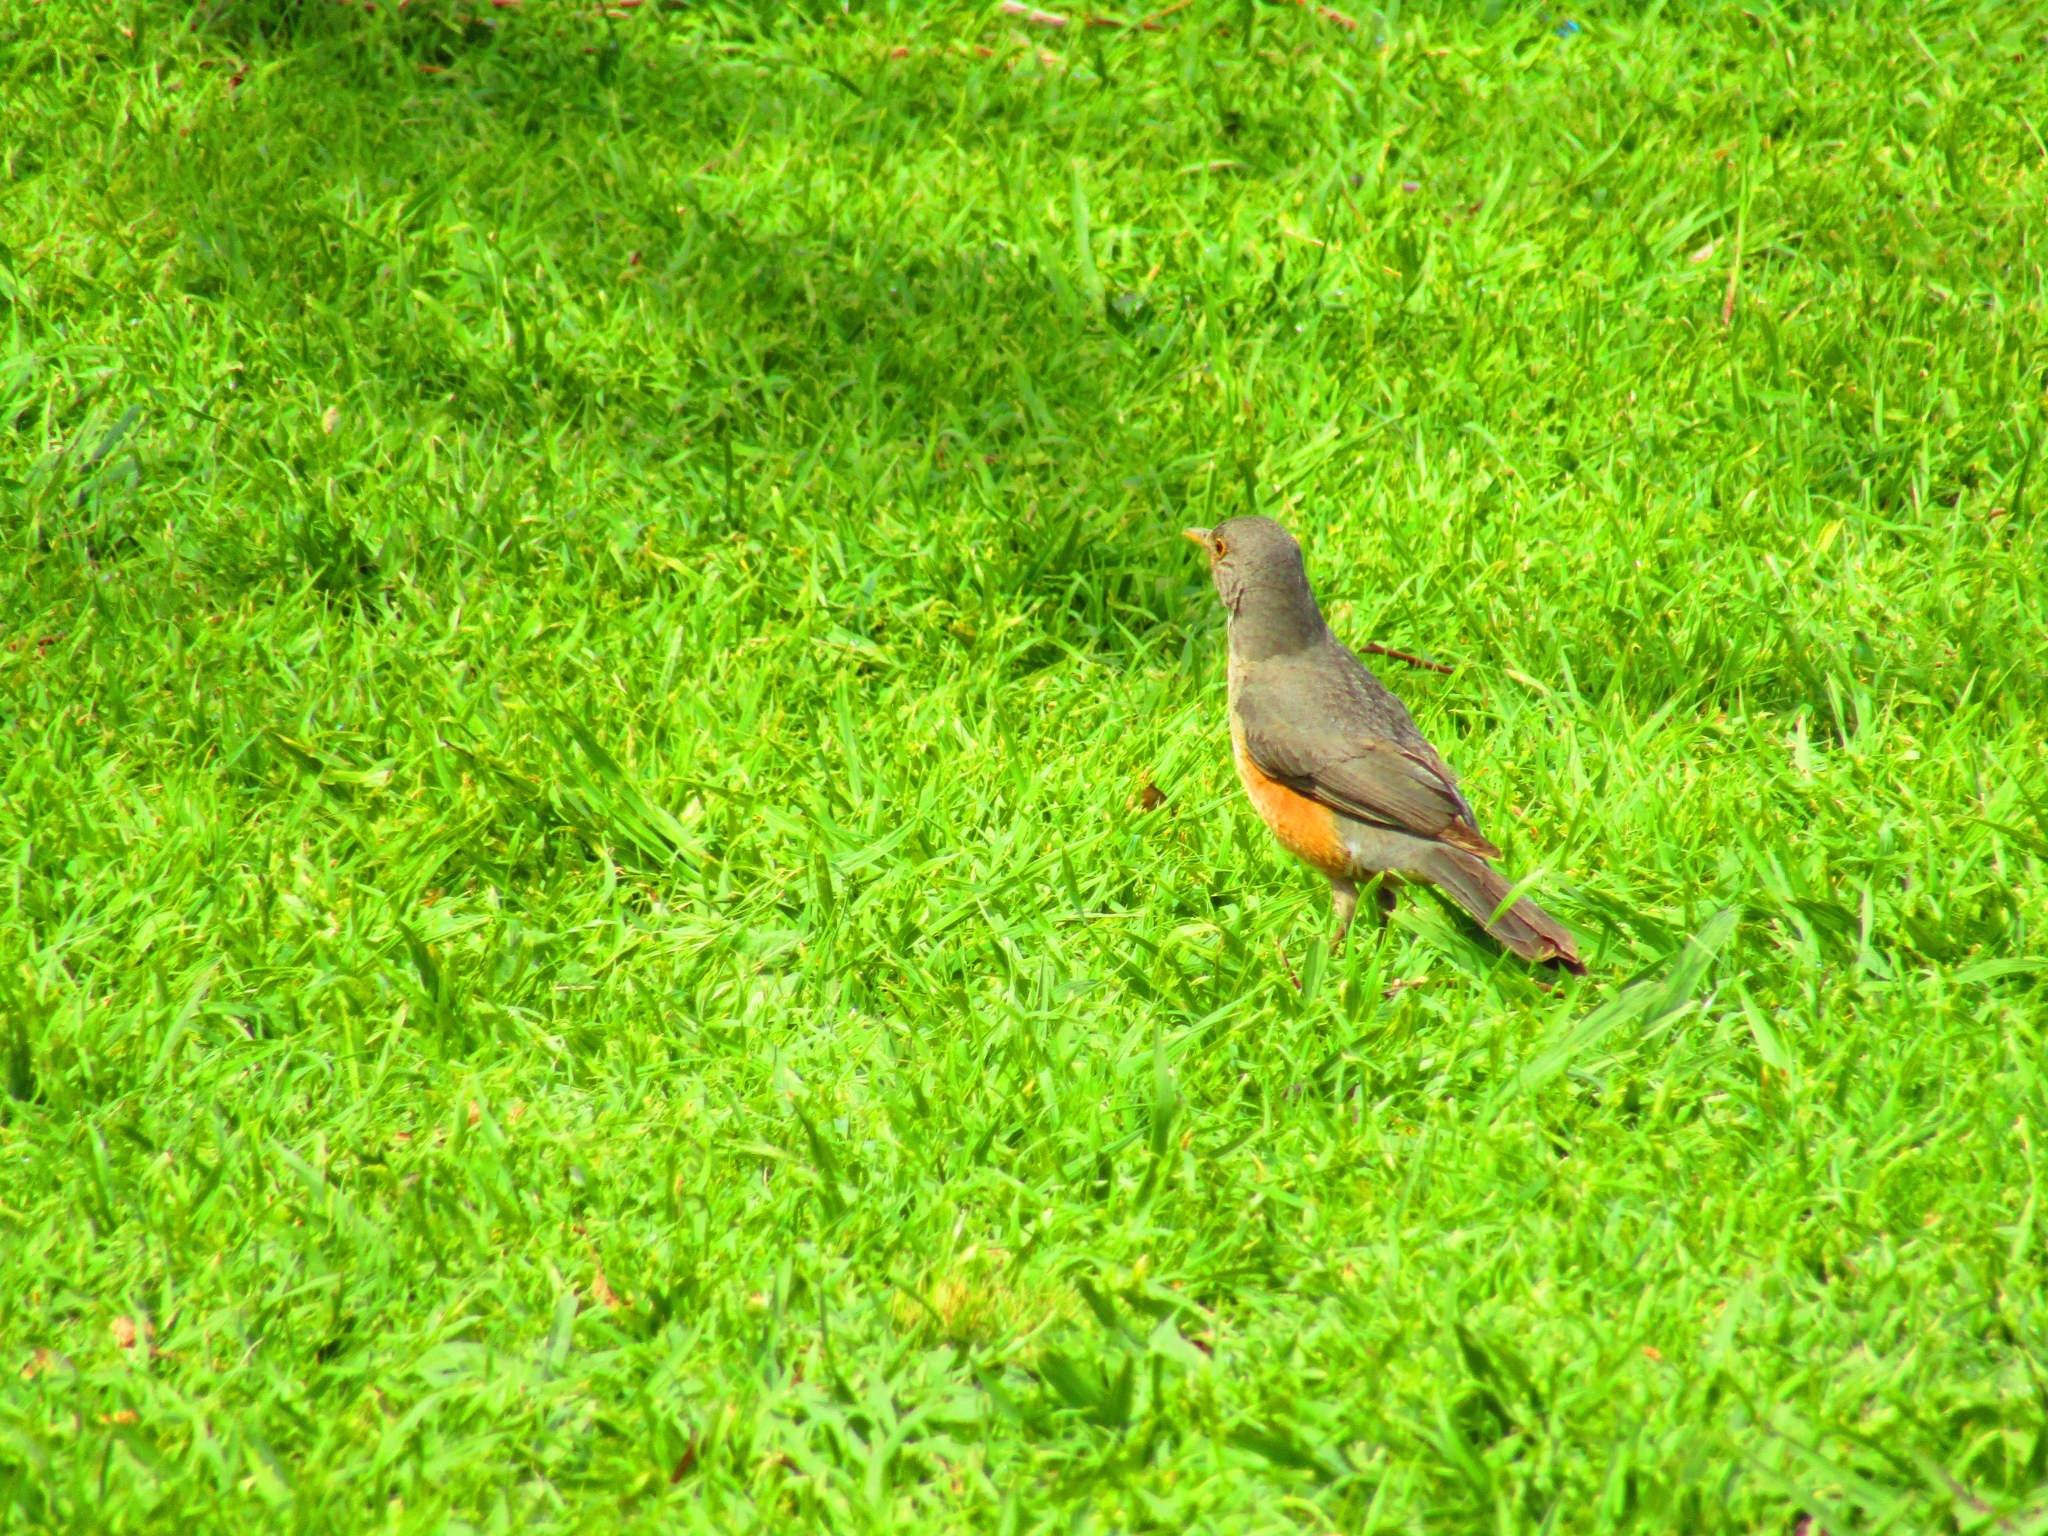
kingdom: Animalia
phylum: Chordata
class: Aves
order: Passeriformes
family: Turdidae
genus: Turdus
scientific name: Turdus rufiventris
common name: Rufous-bellied thrush
